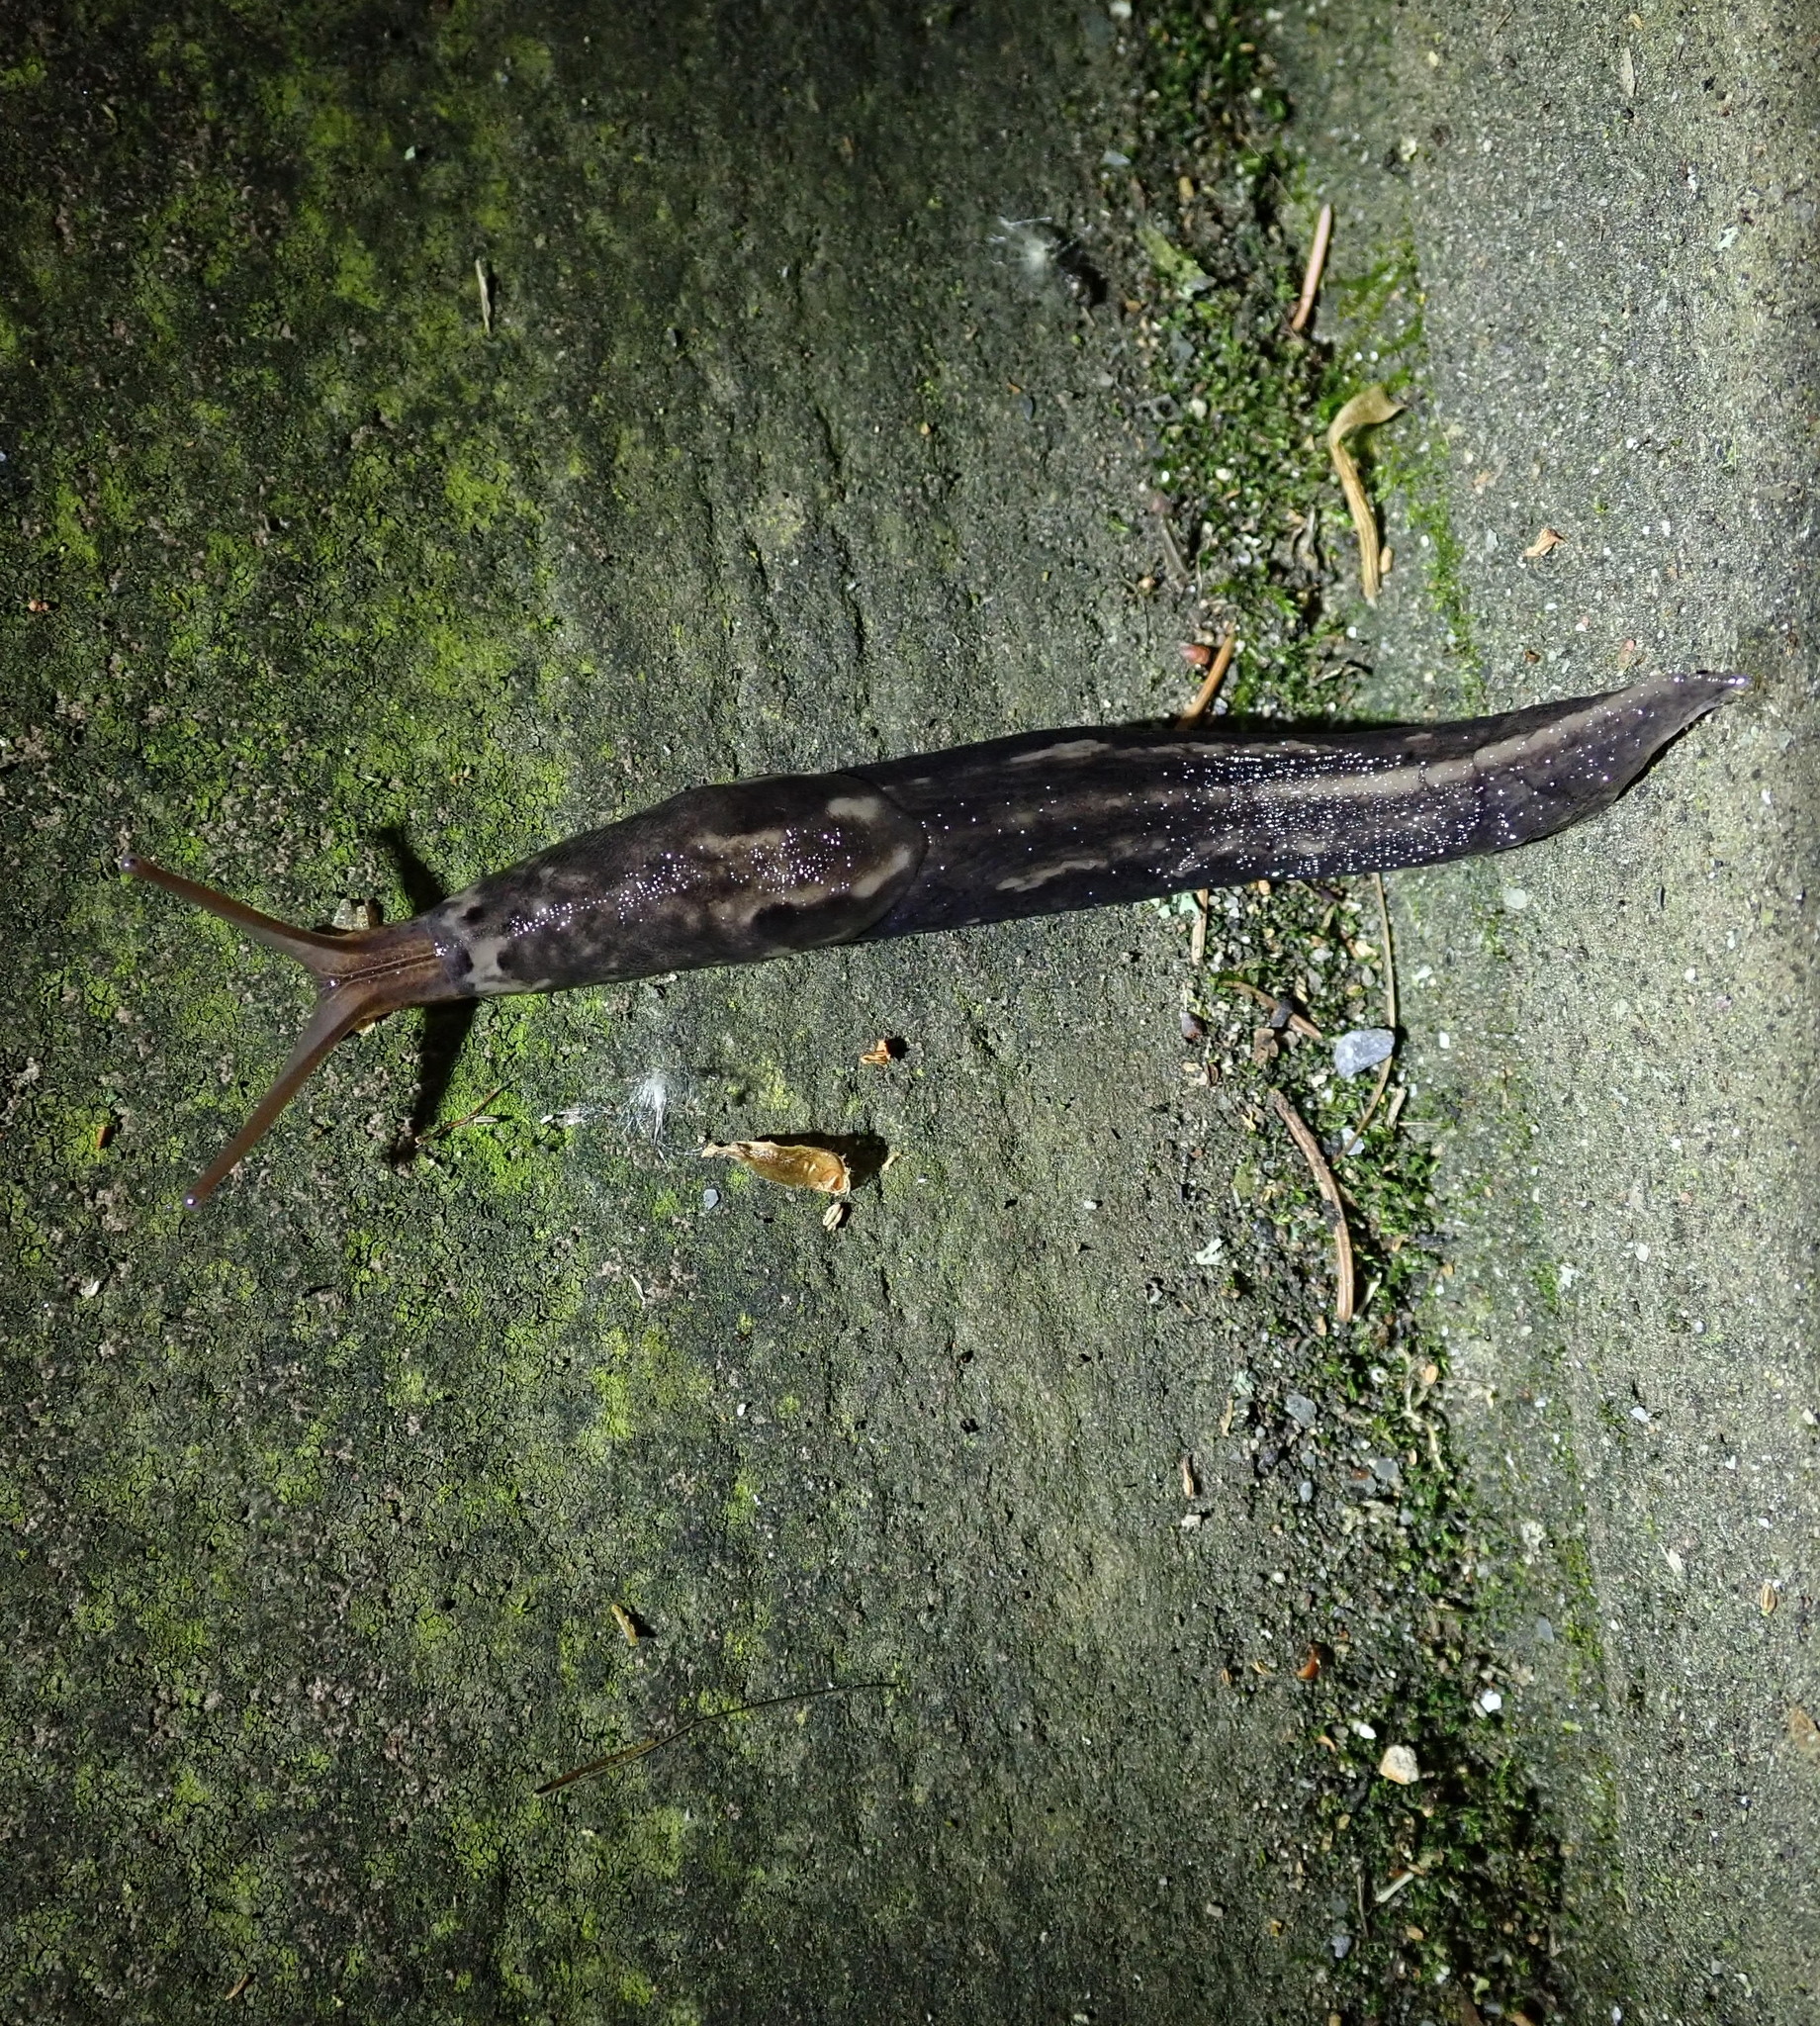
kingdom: Animalia
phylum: Mollusca
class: Gastropoda
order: Stylommatophora
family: Limacidae
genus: Limax
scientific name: Limax maximus
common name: Great grey slug
